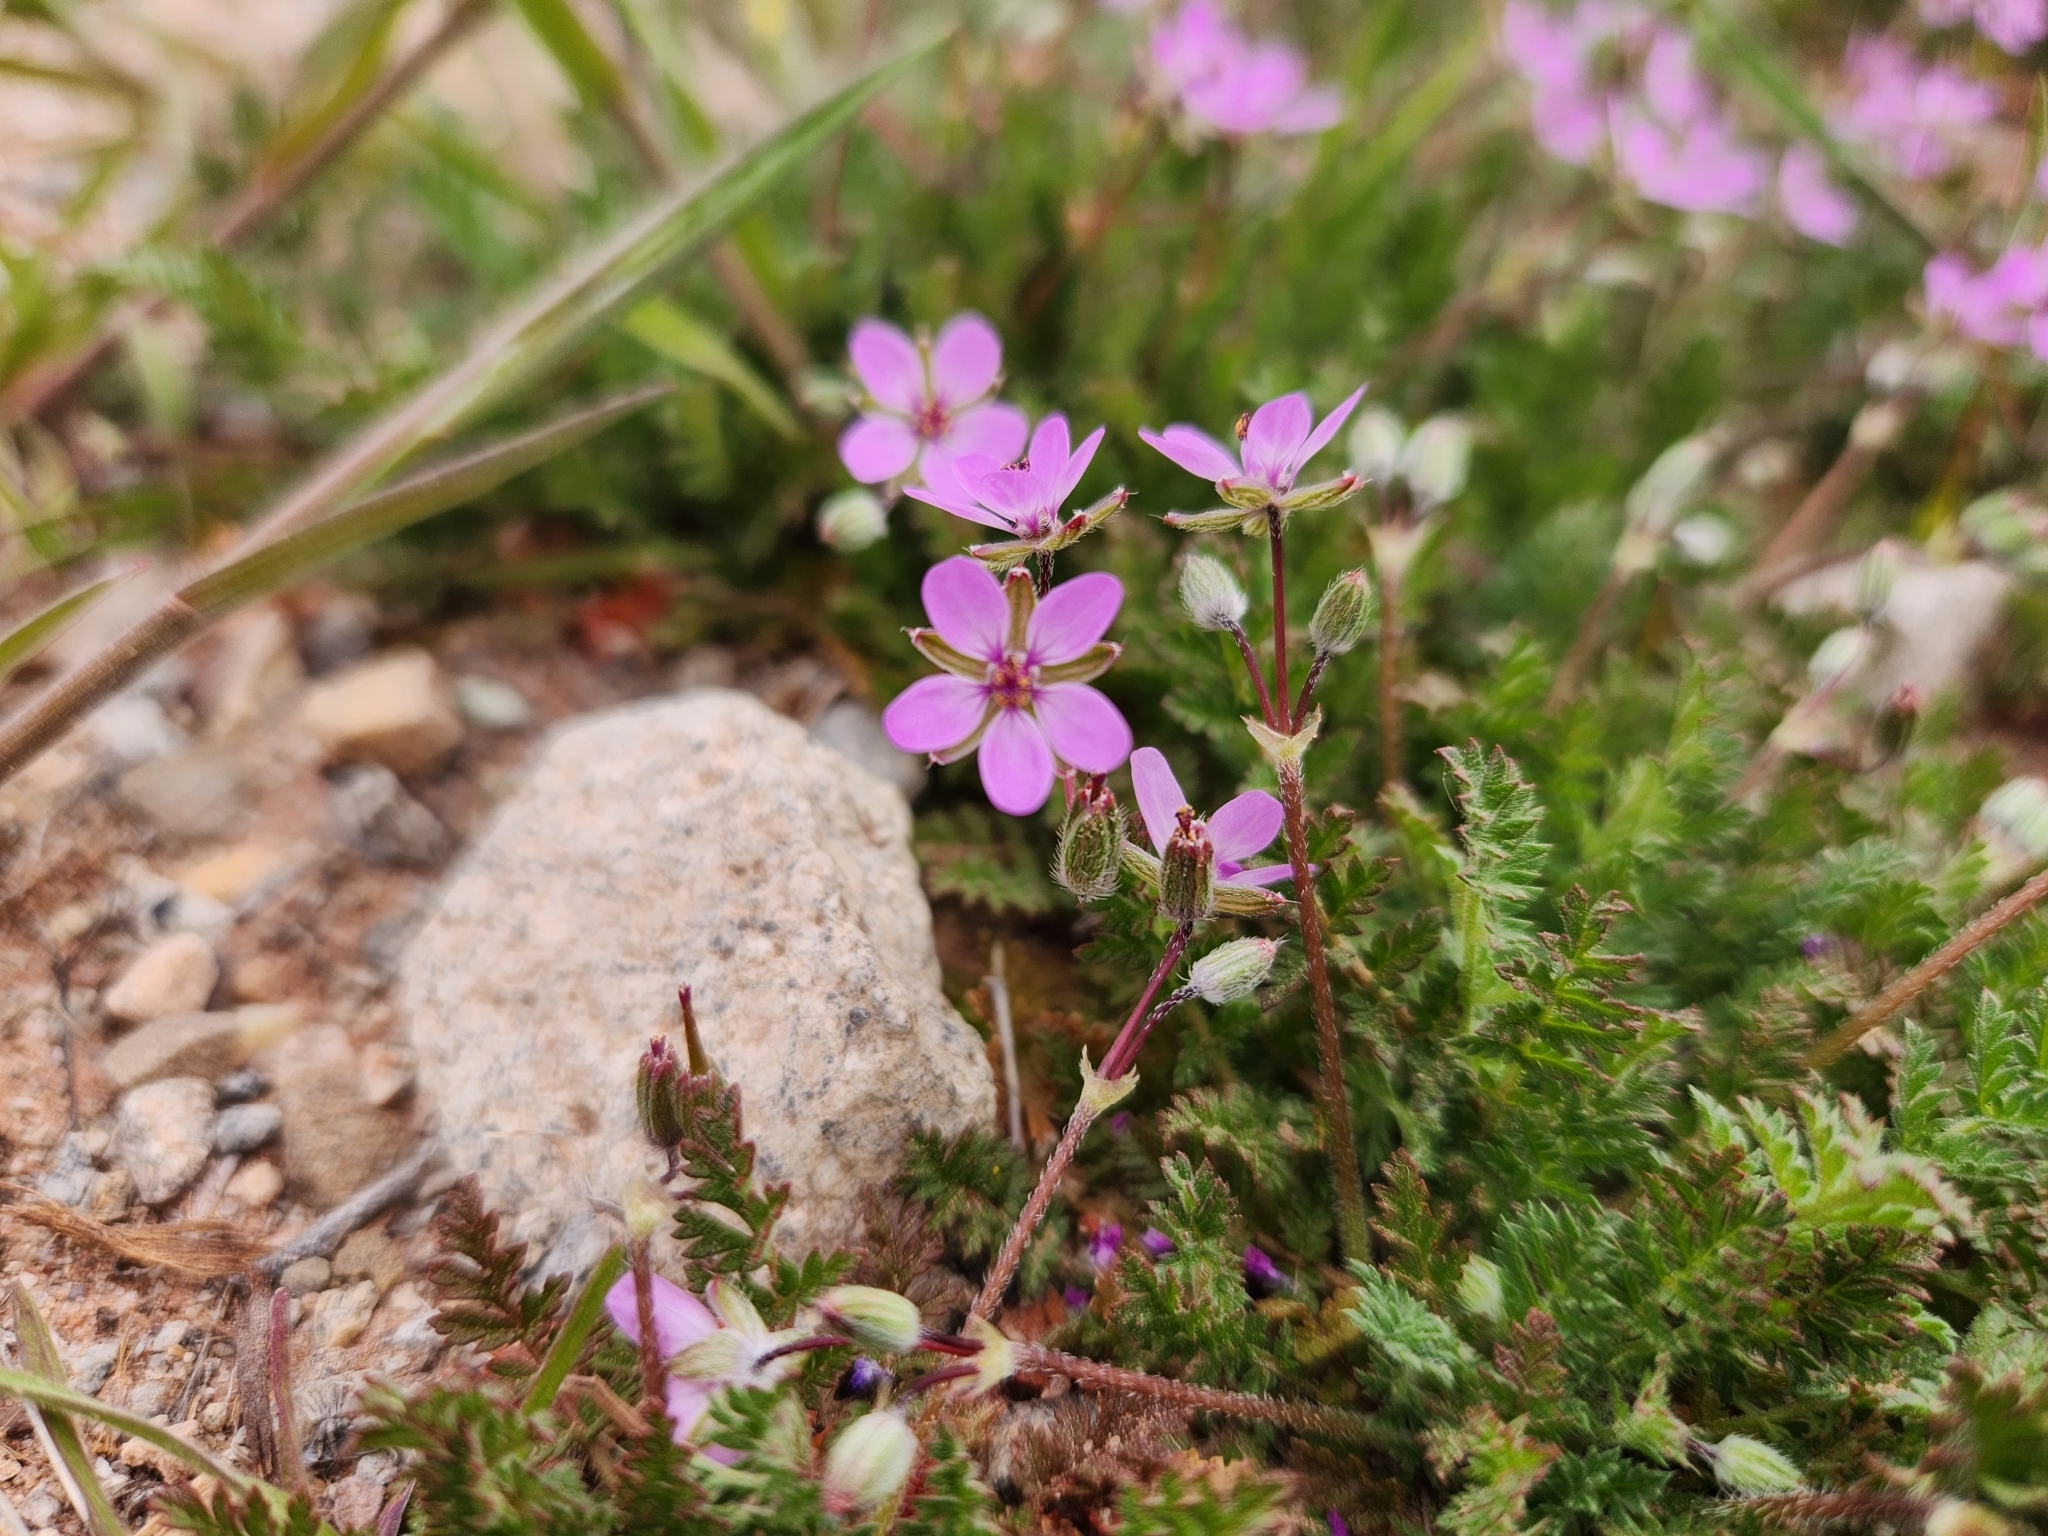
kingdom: Plantae
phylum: Tracheophyta
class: Magnoliopsida
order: Geraniales
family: Geraniaceae
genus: Erodium
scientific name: Erodium cicutarium
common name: Common stork's-bill
